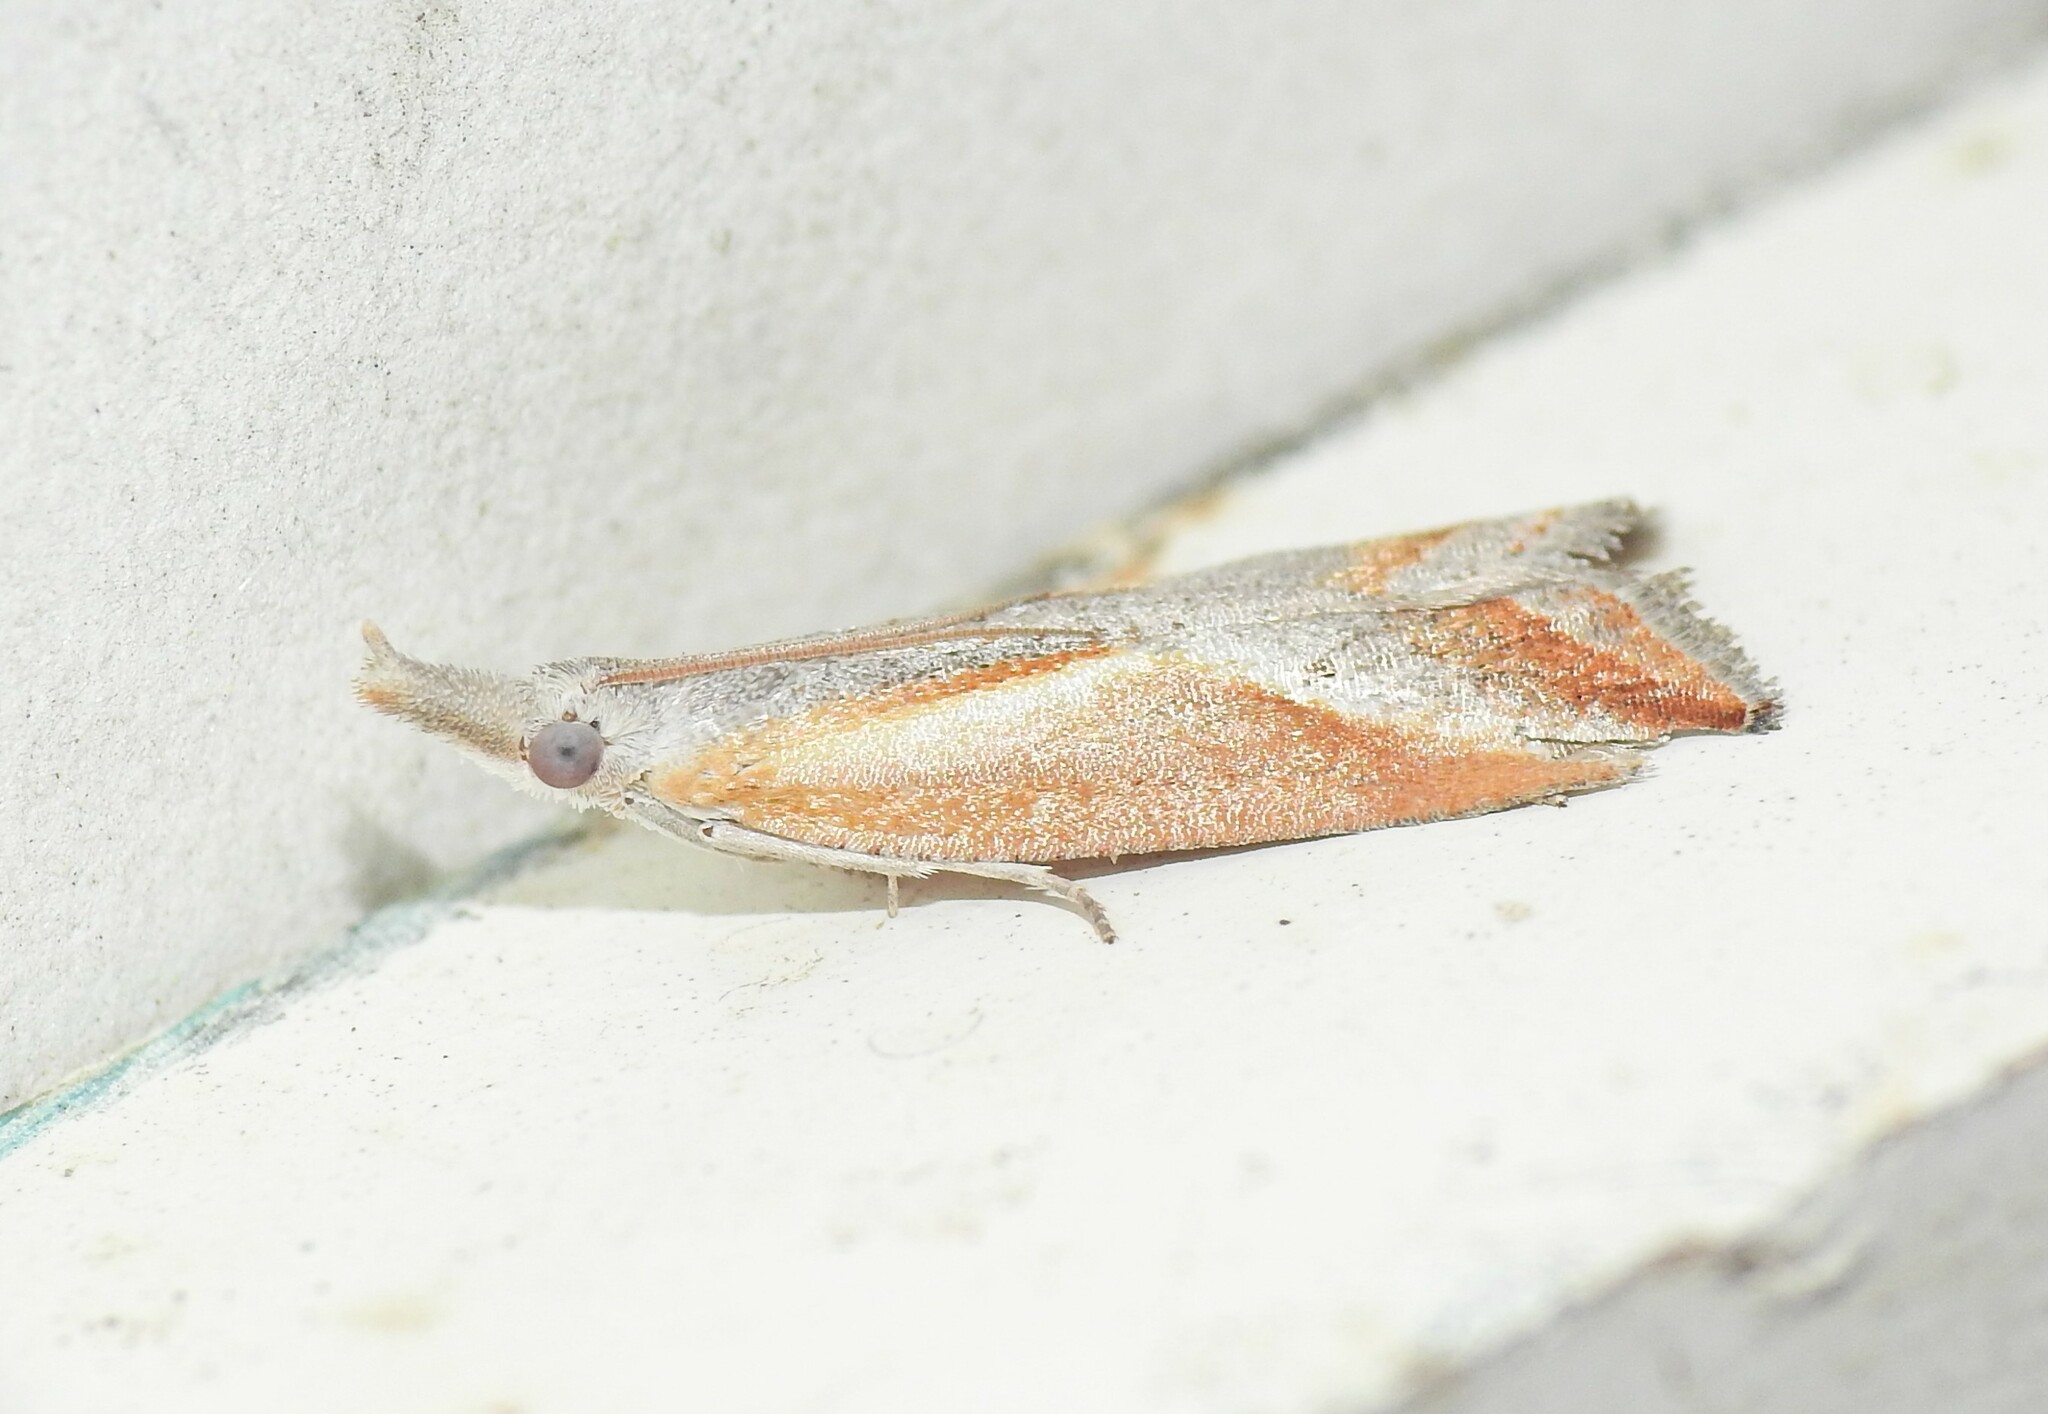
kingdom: Animalia
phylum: Arthropoda
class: Insecta
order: Lepidoptera
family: Tortricidae
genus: Arotrophora
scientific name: Arotrophora arcuatalis
